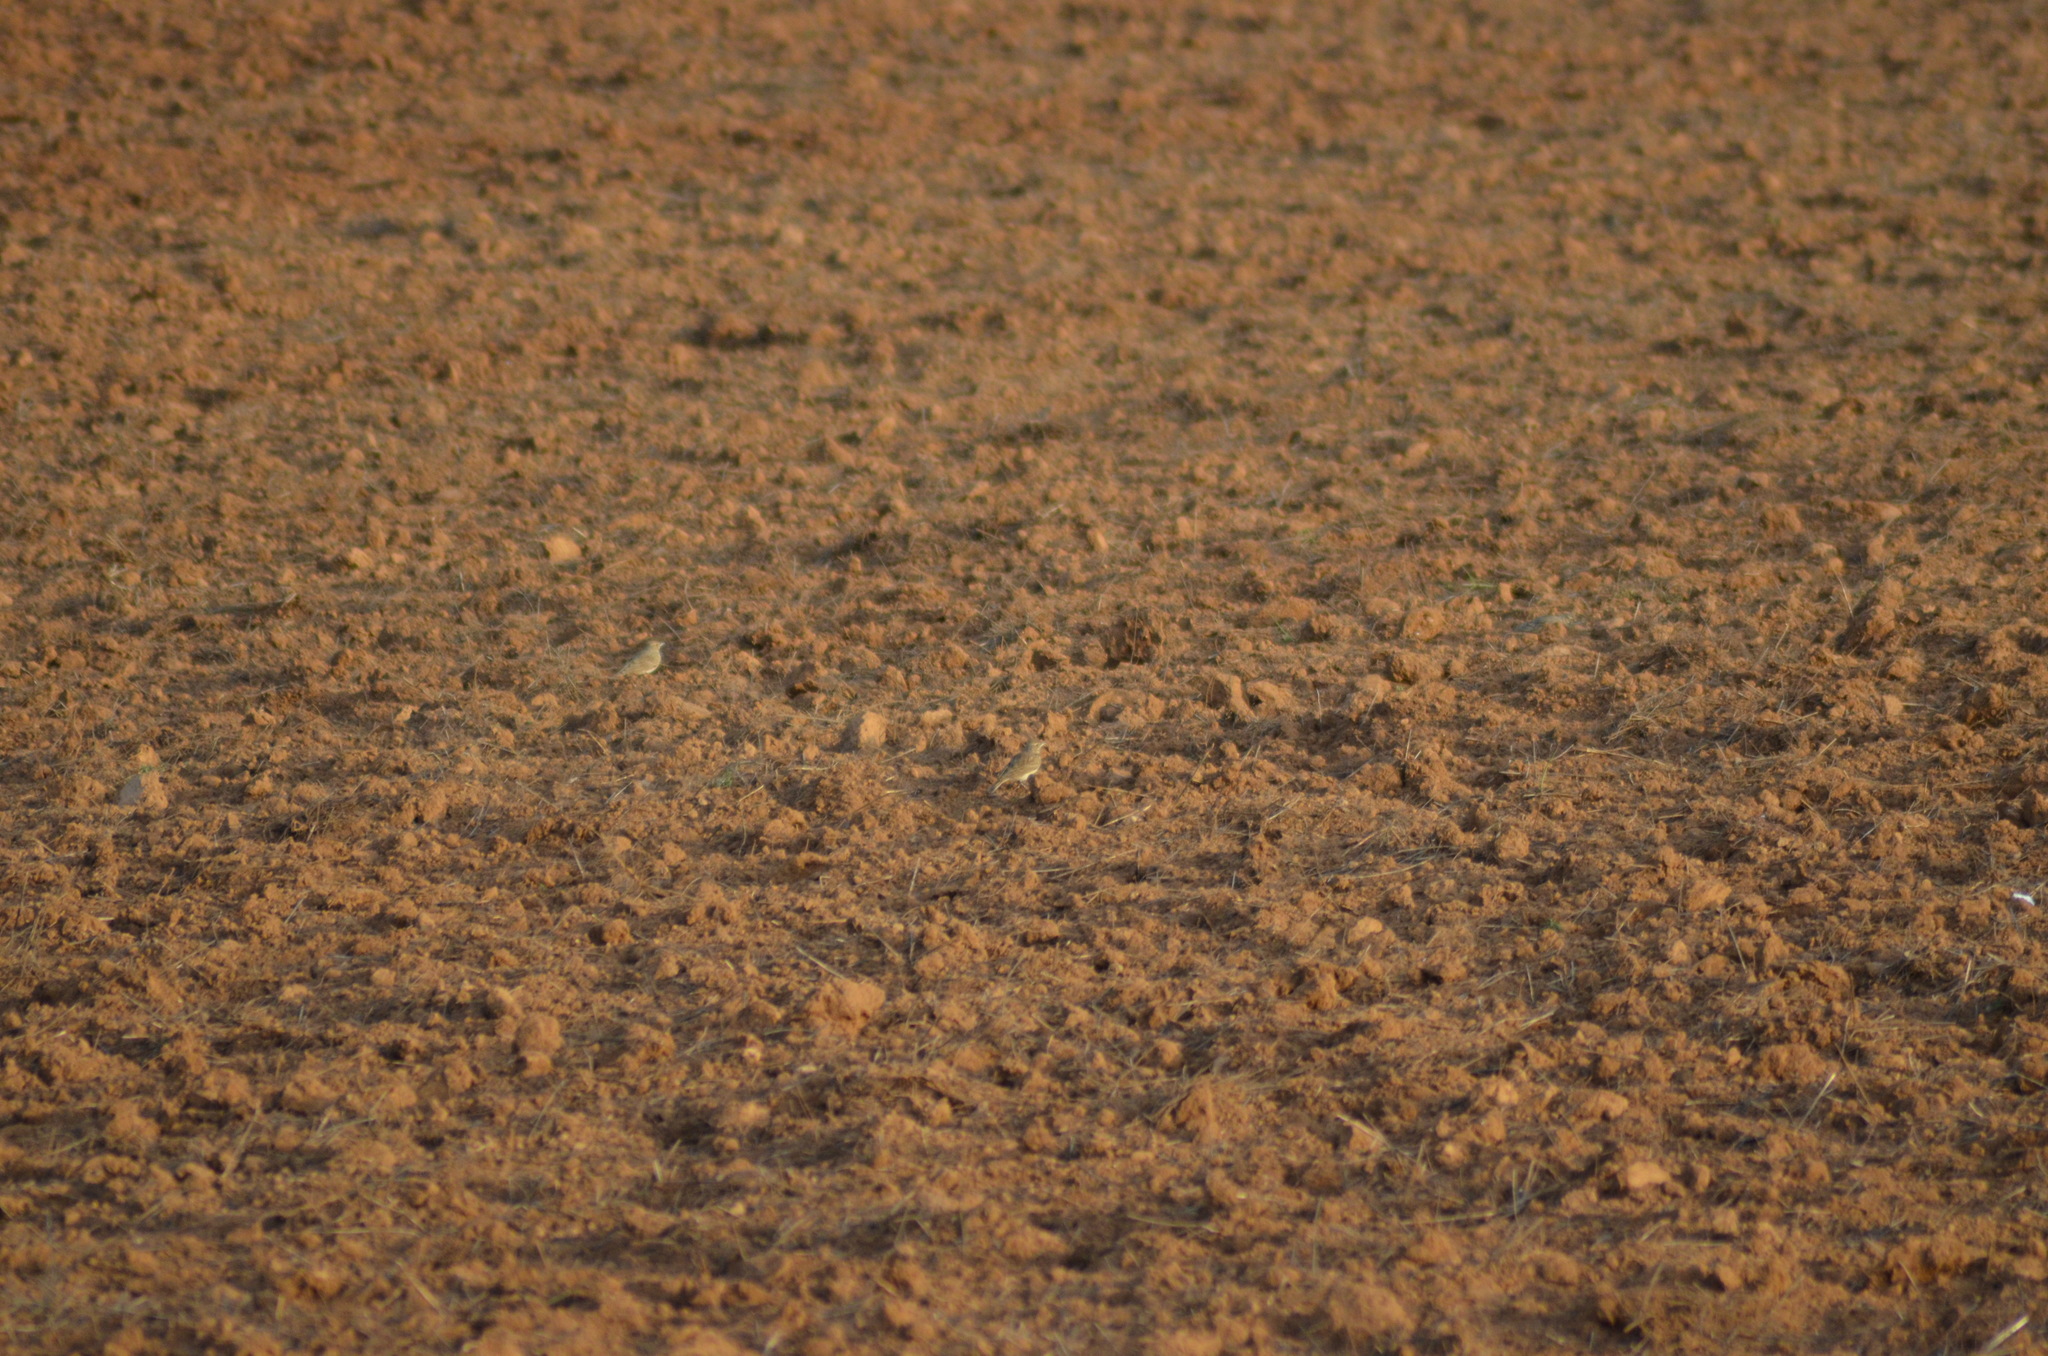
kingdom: Animalia
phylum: Chordata
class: Aves
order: Passeriformes
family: Alaudidae
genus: Galerida
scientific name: Galerida cristata
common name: Crested lark
